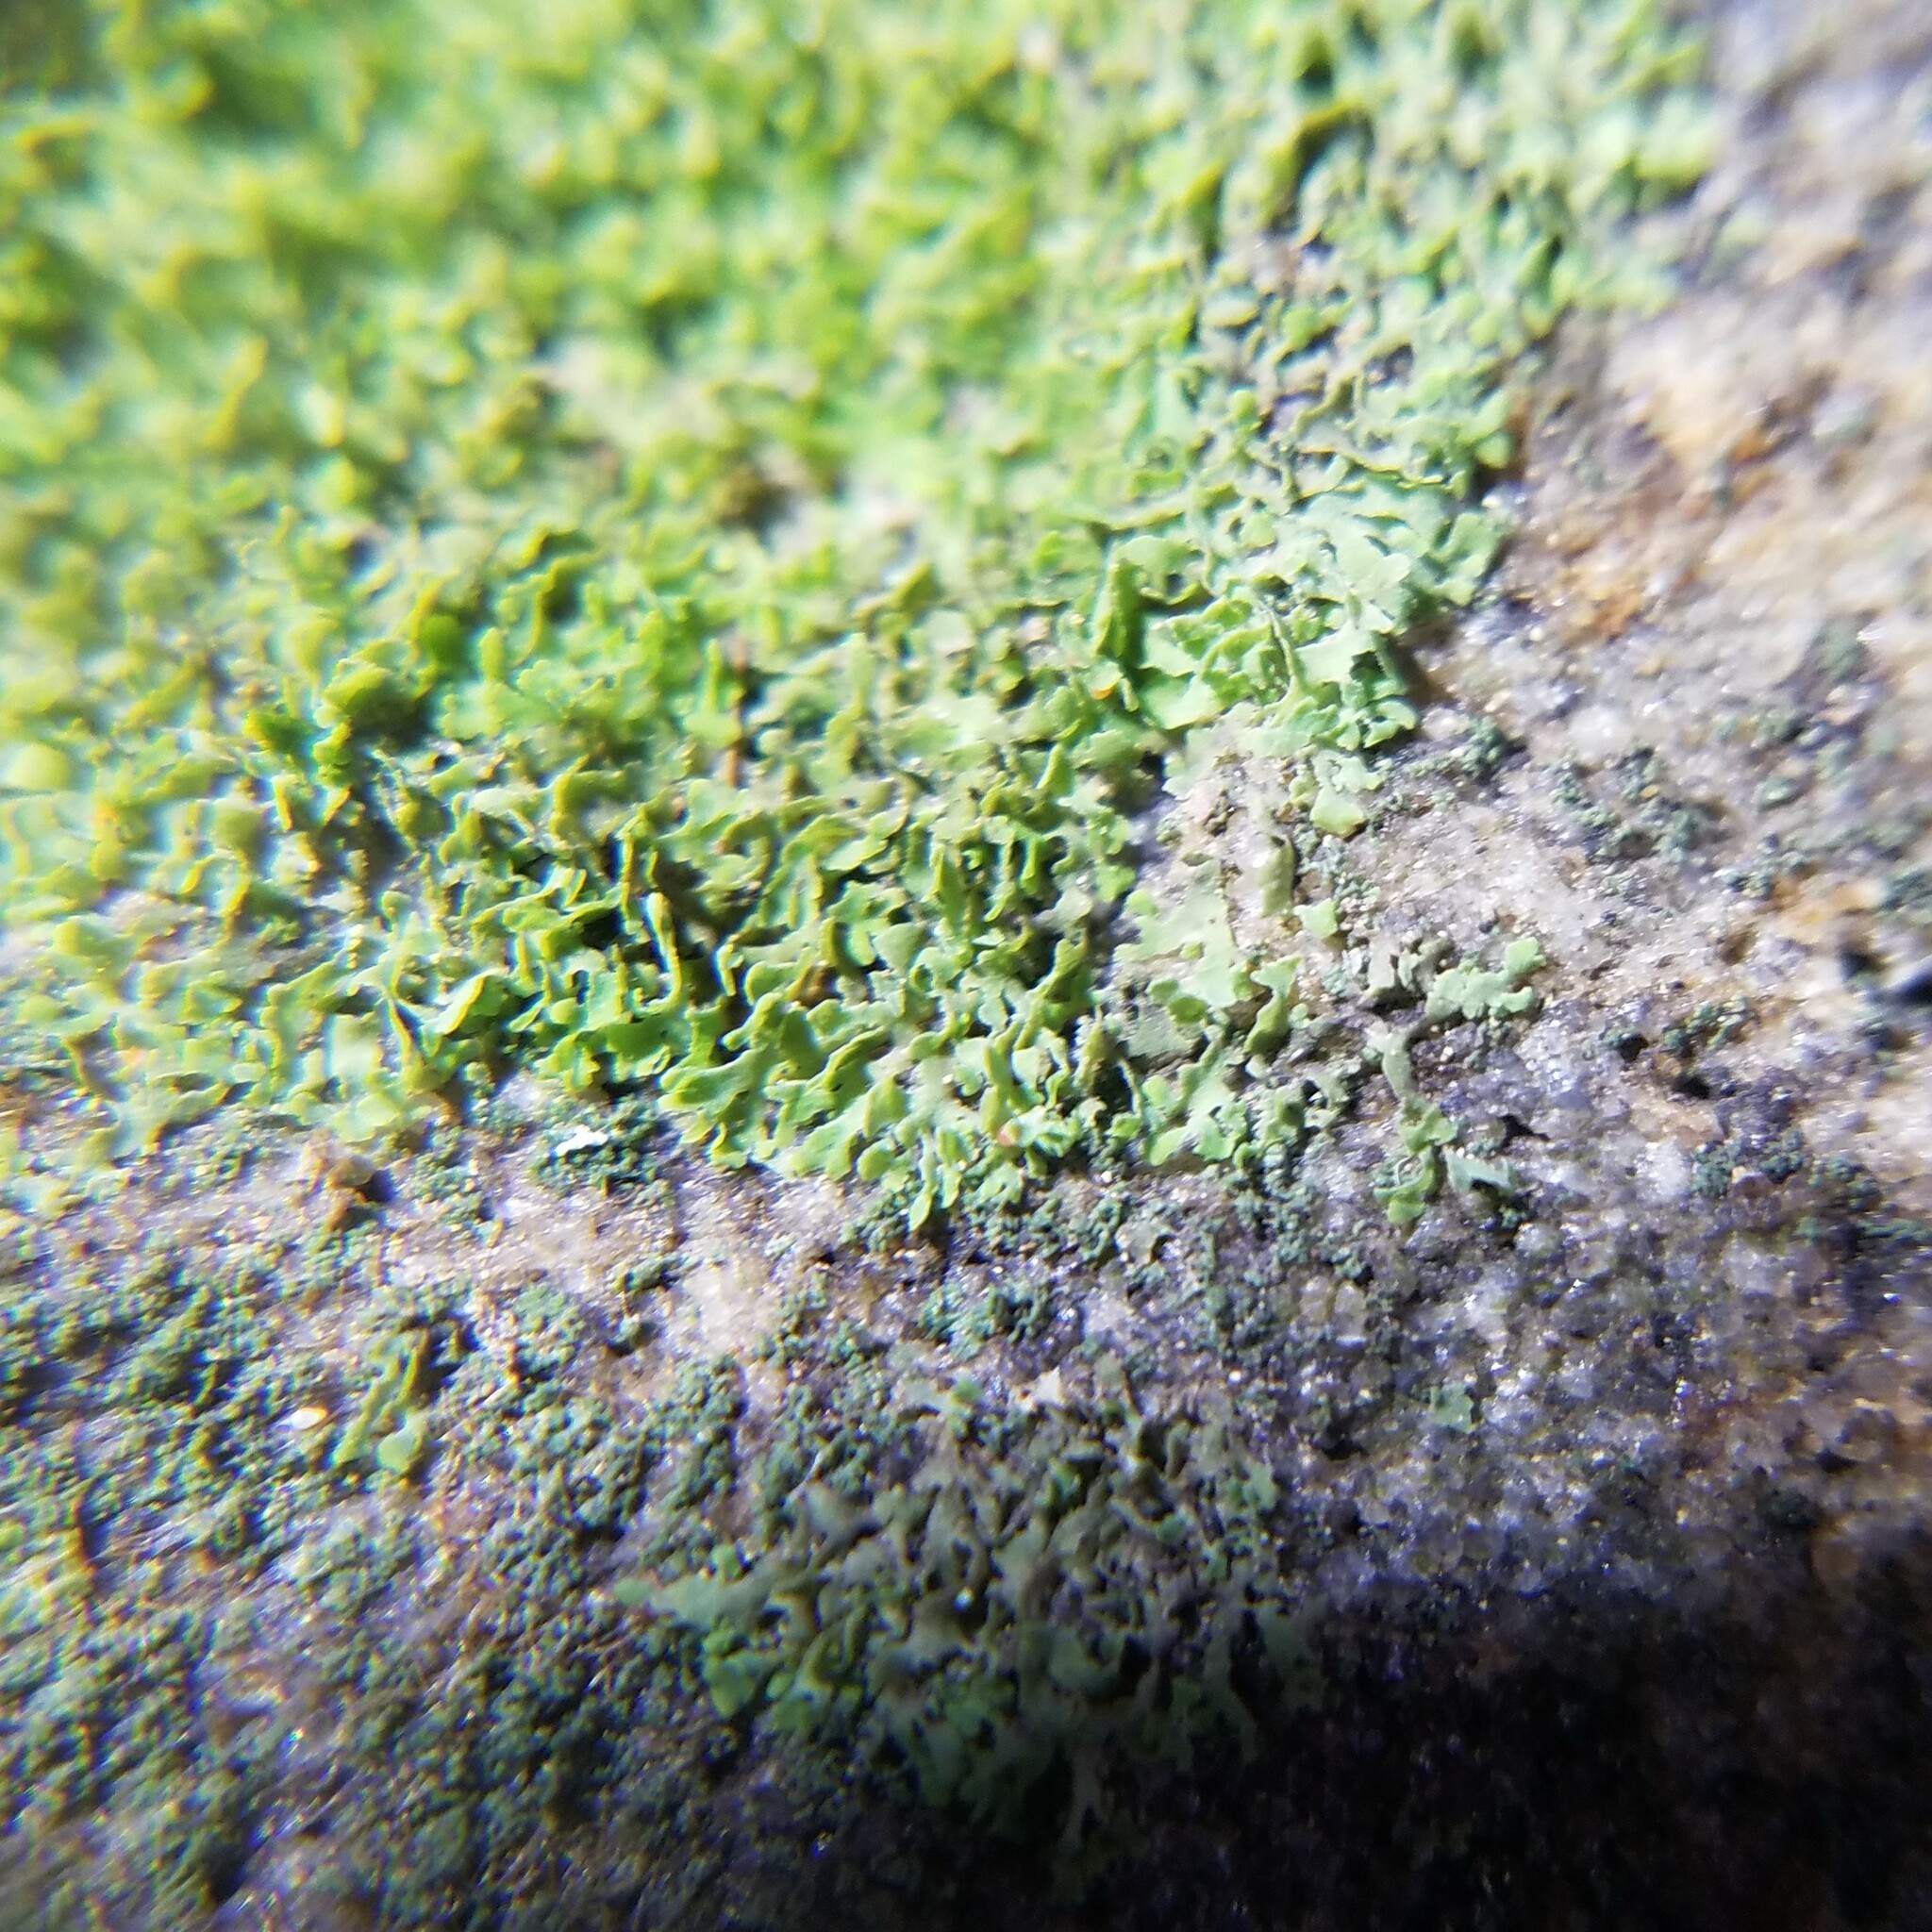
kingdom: Fungi
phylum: Ascomycota
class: Eurotiomycetes
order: Verrucariales
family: Verrucariaceae
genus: Flakea
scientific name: Flakea papillata
